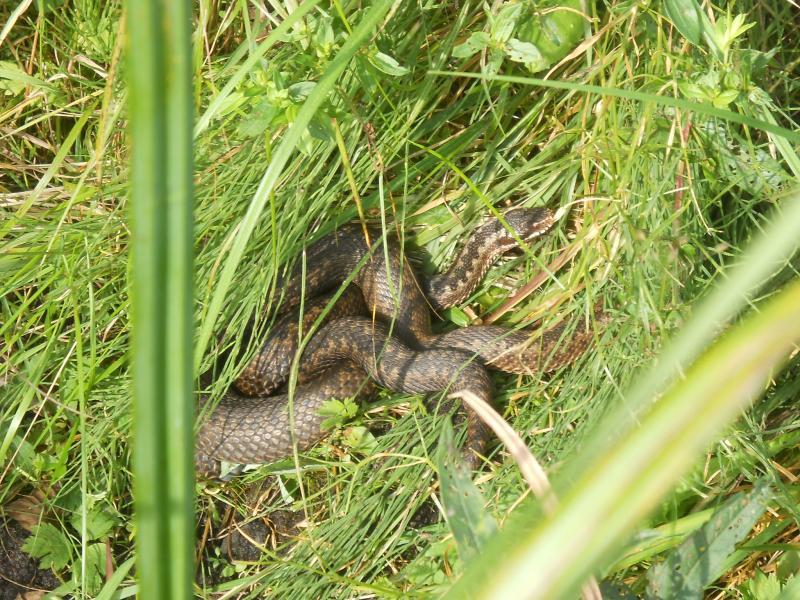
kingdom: Animalia
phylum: Chordata
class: Squamata
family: Viperidae
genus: Vipera
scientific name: Vipera berus
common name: Adder
